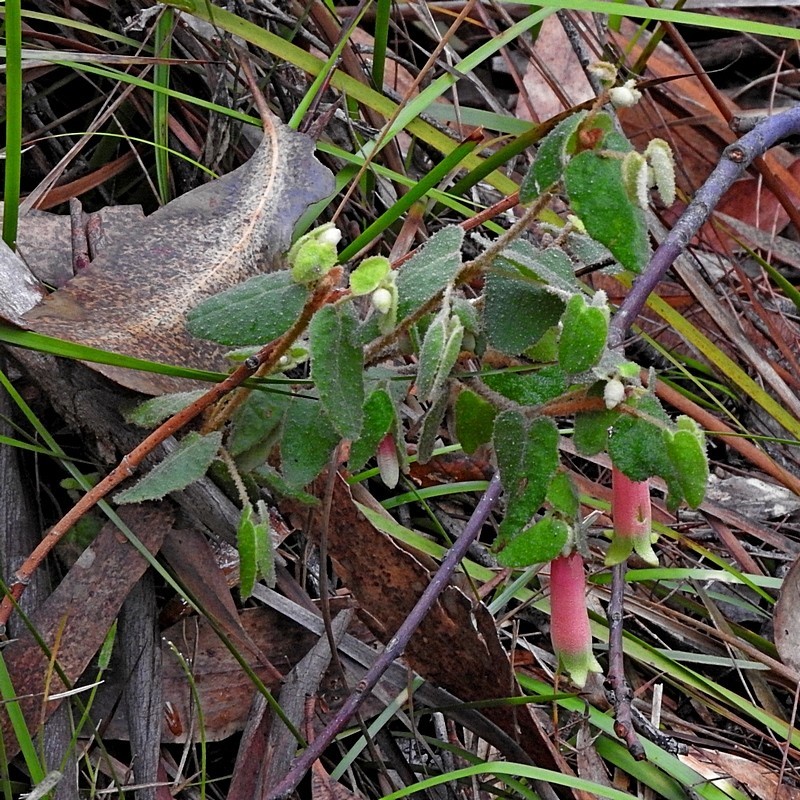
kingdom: Plantae
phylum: Tracheophyta
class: Magnoliopsida
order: Sapindales
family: Rutaceae
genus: Correa
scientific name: Correa reflexa
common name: Common correa
